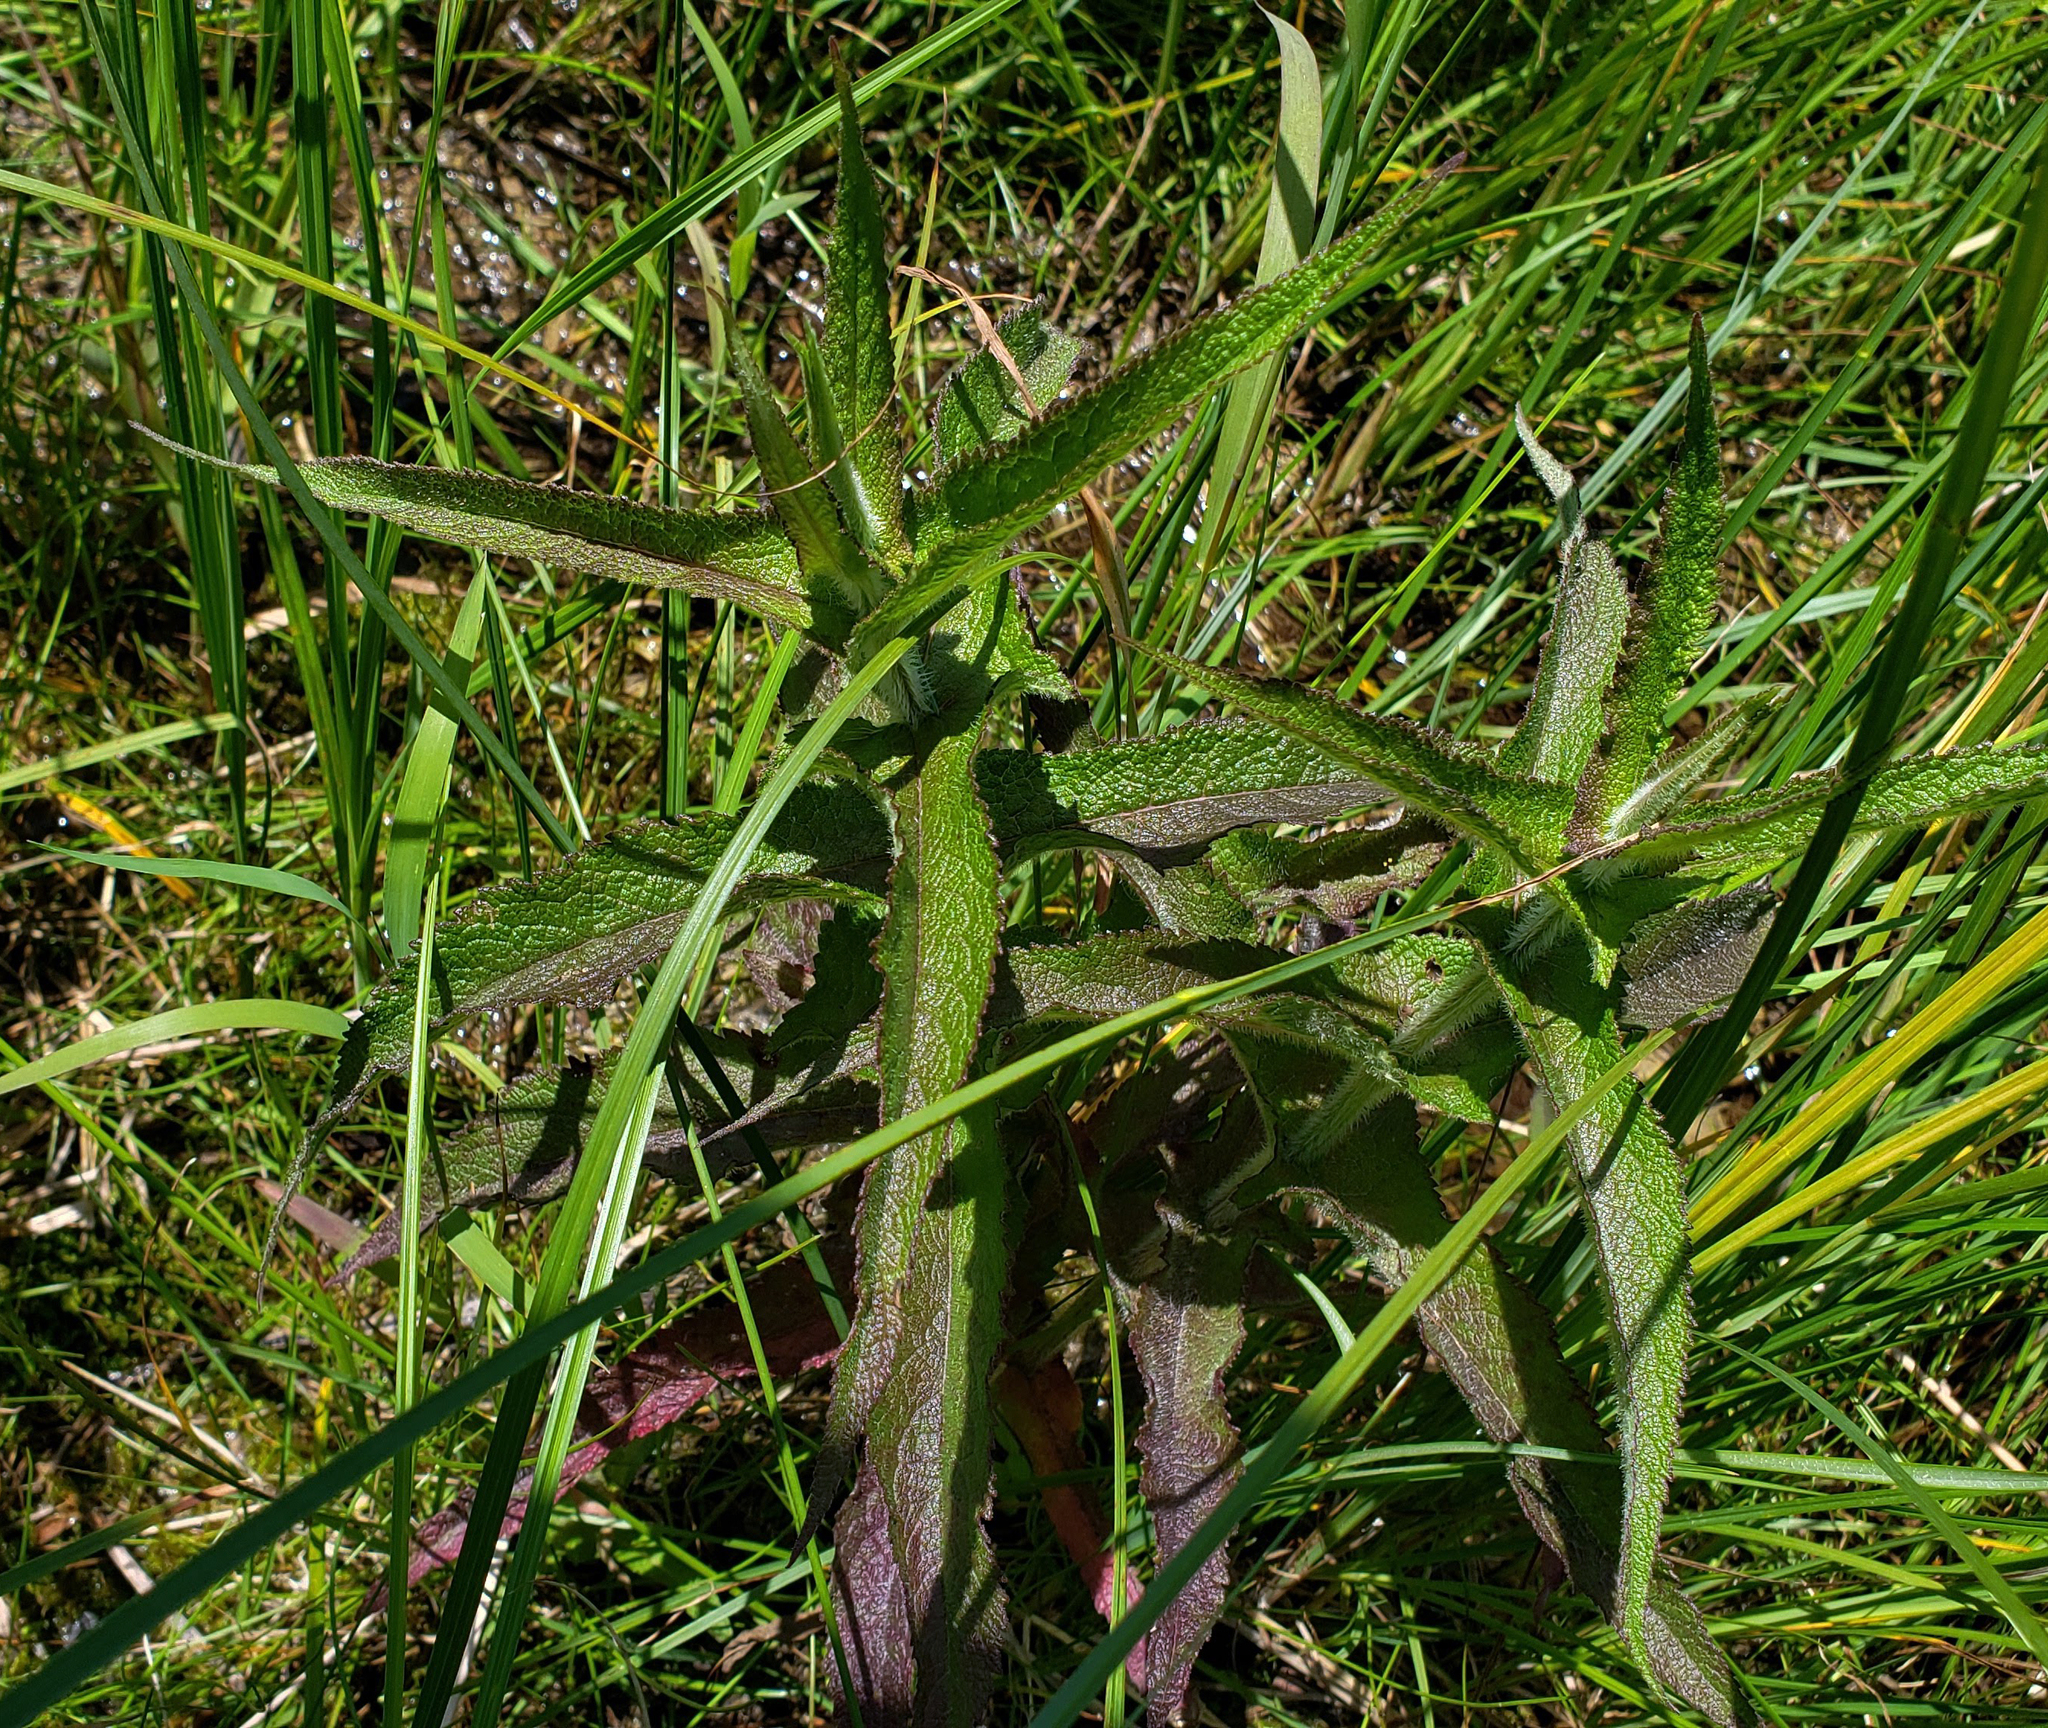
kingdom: Plantae
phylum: Tracheophyta
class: Magnoliopsida
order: Asterales
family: Asteraceae
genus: Eupatorium
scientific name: Eupatorium perfoliatum
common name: Boneset
